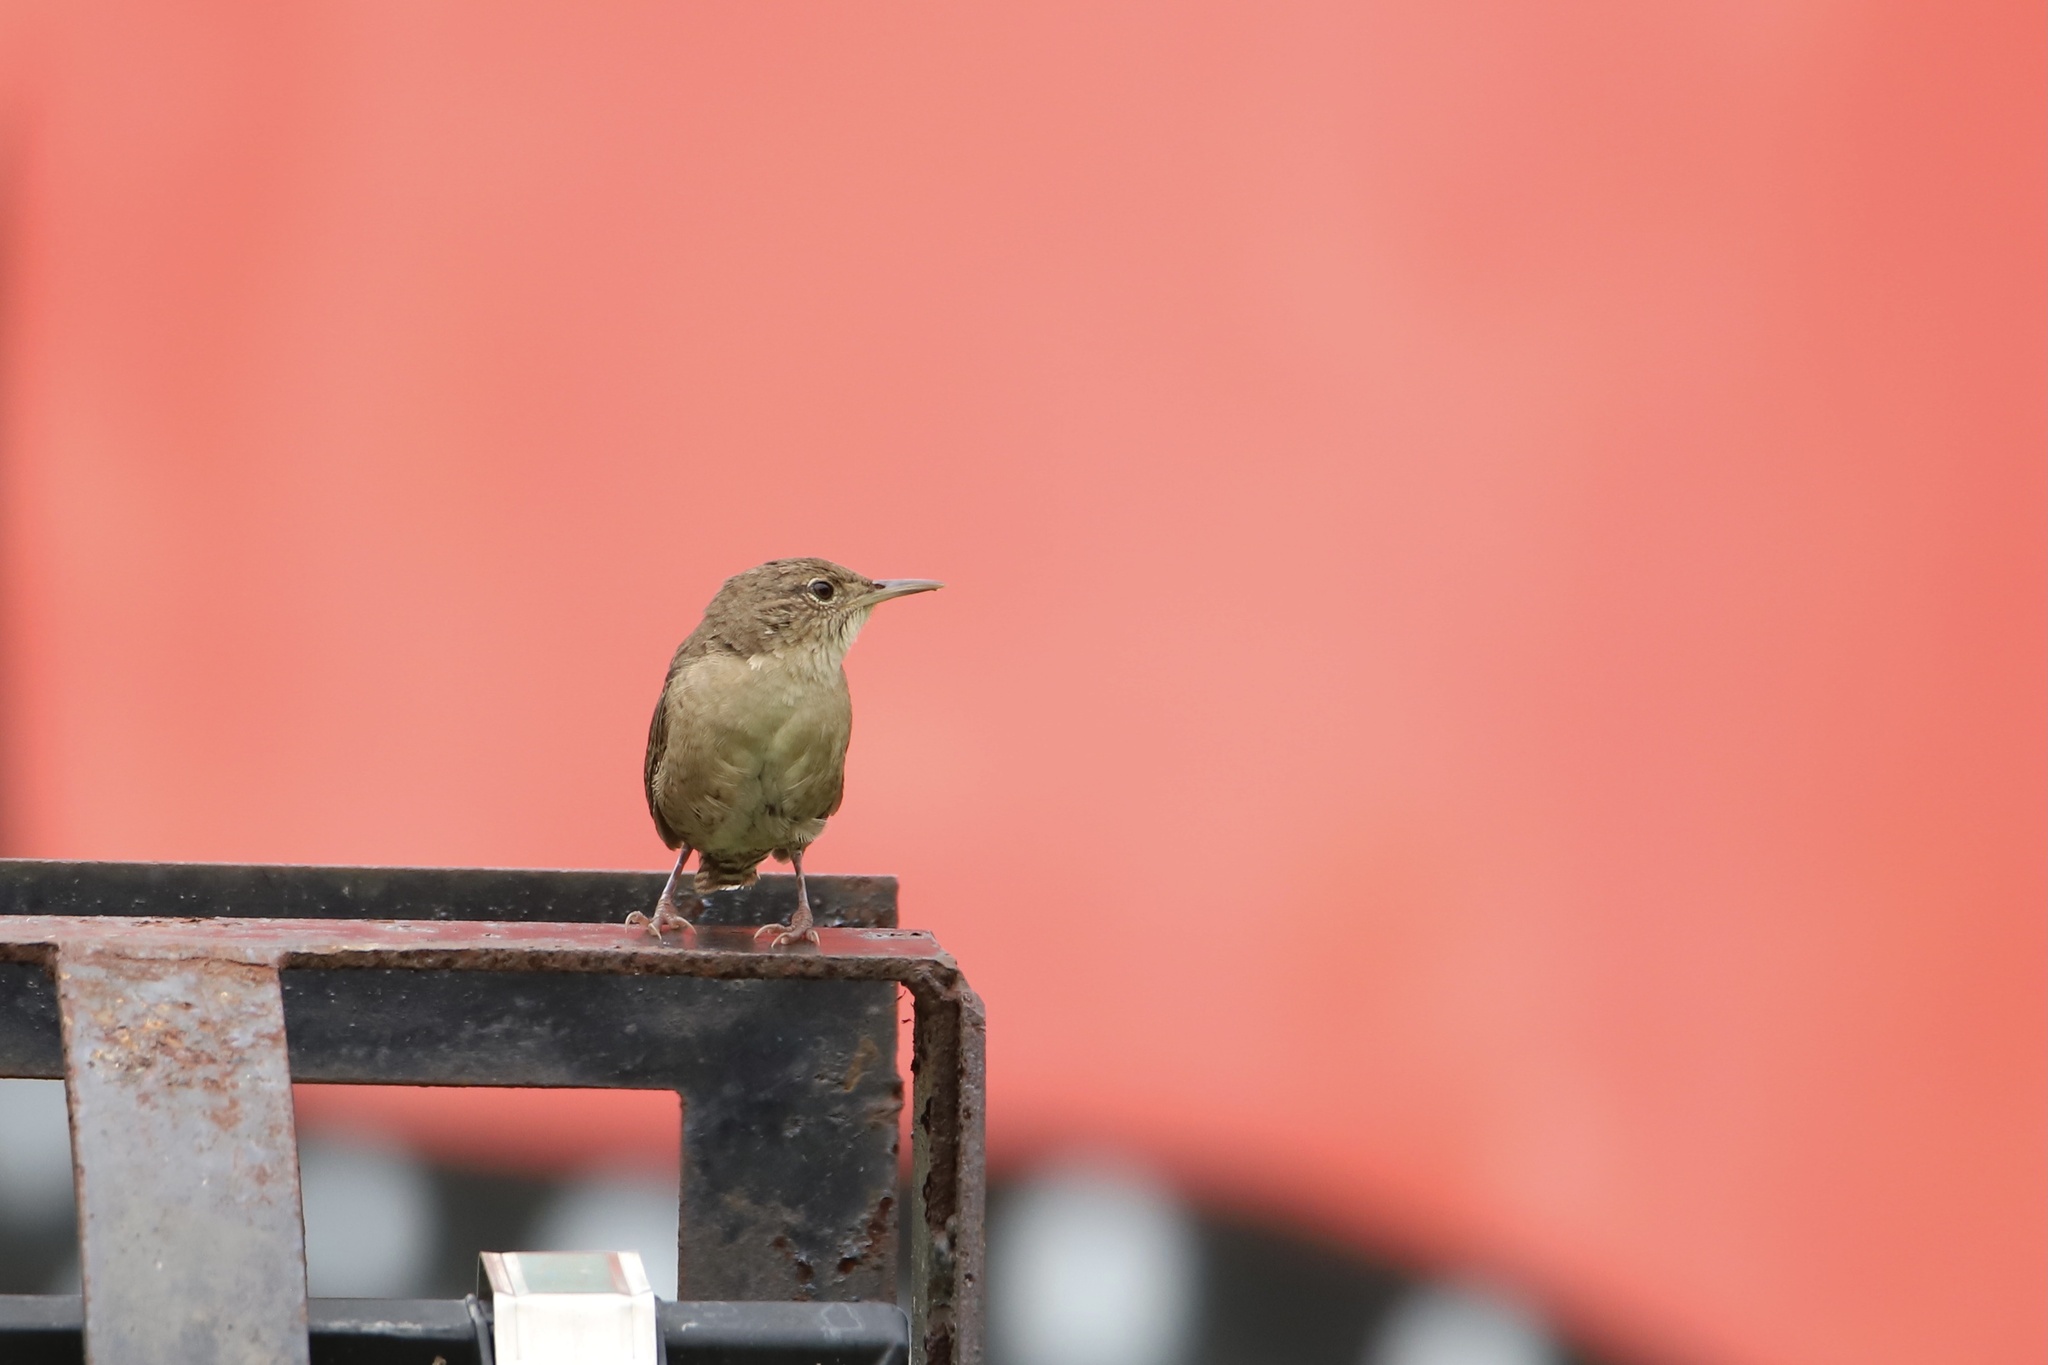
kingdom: Animalia
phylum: Chordata
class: Aves
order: Passeriformes
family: Troglodytidae
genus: Troglodytes
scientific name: Troglodytes aedon
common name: House wren
